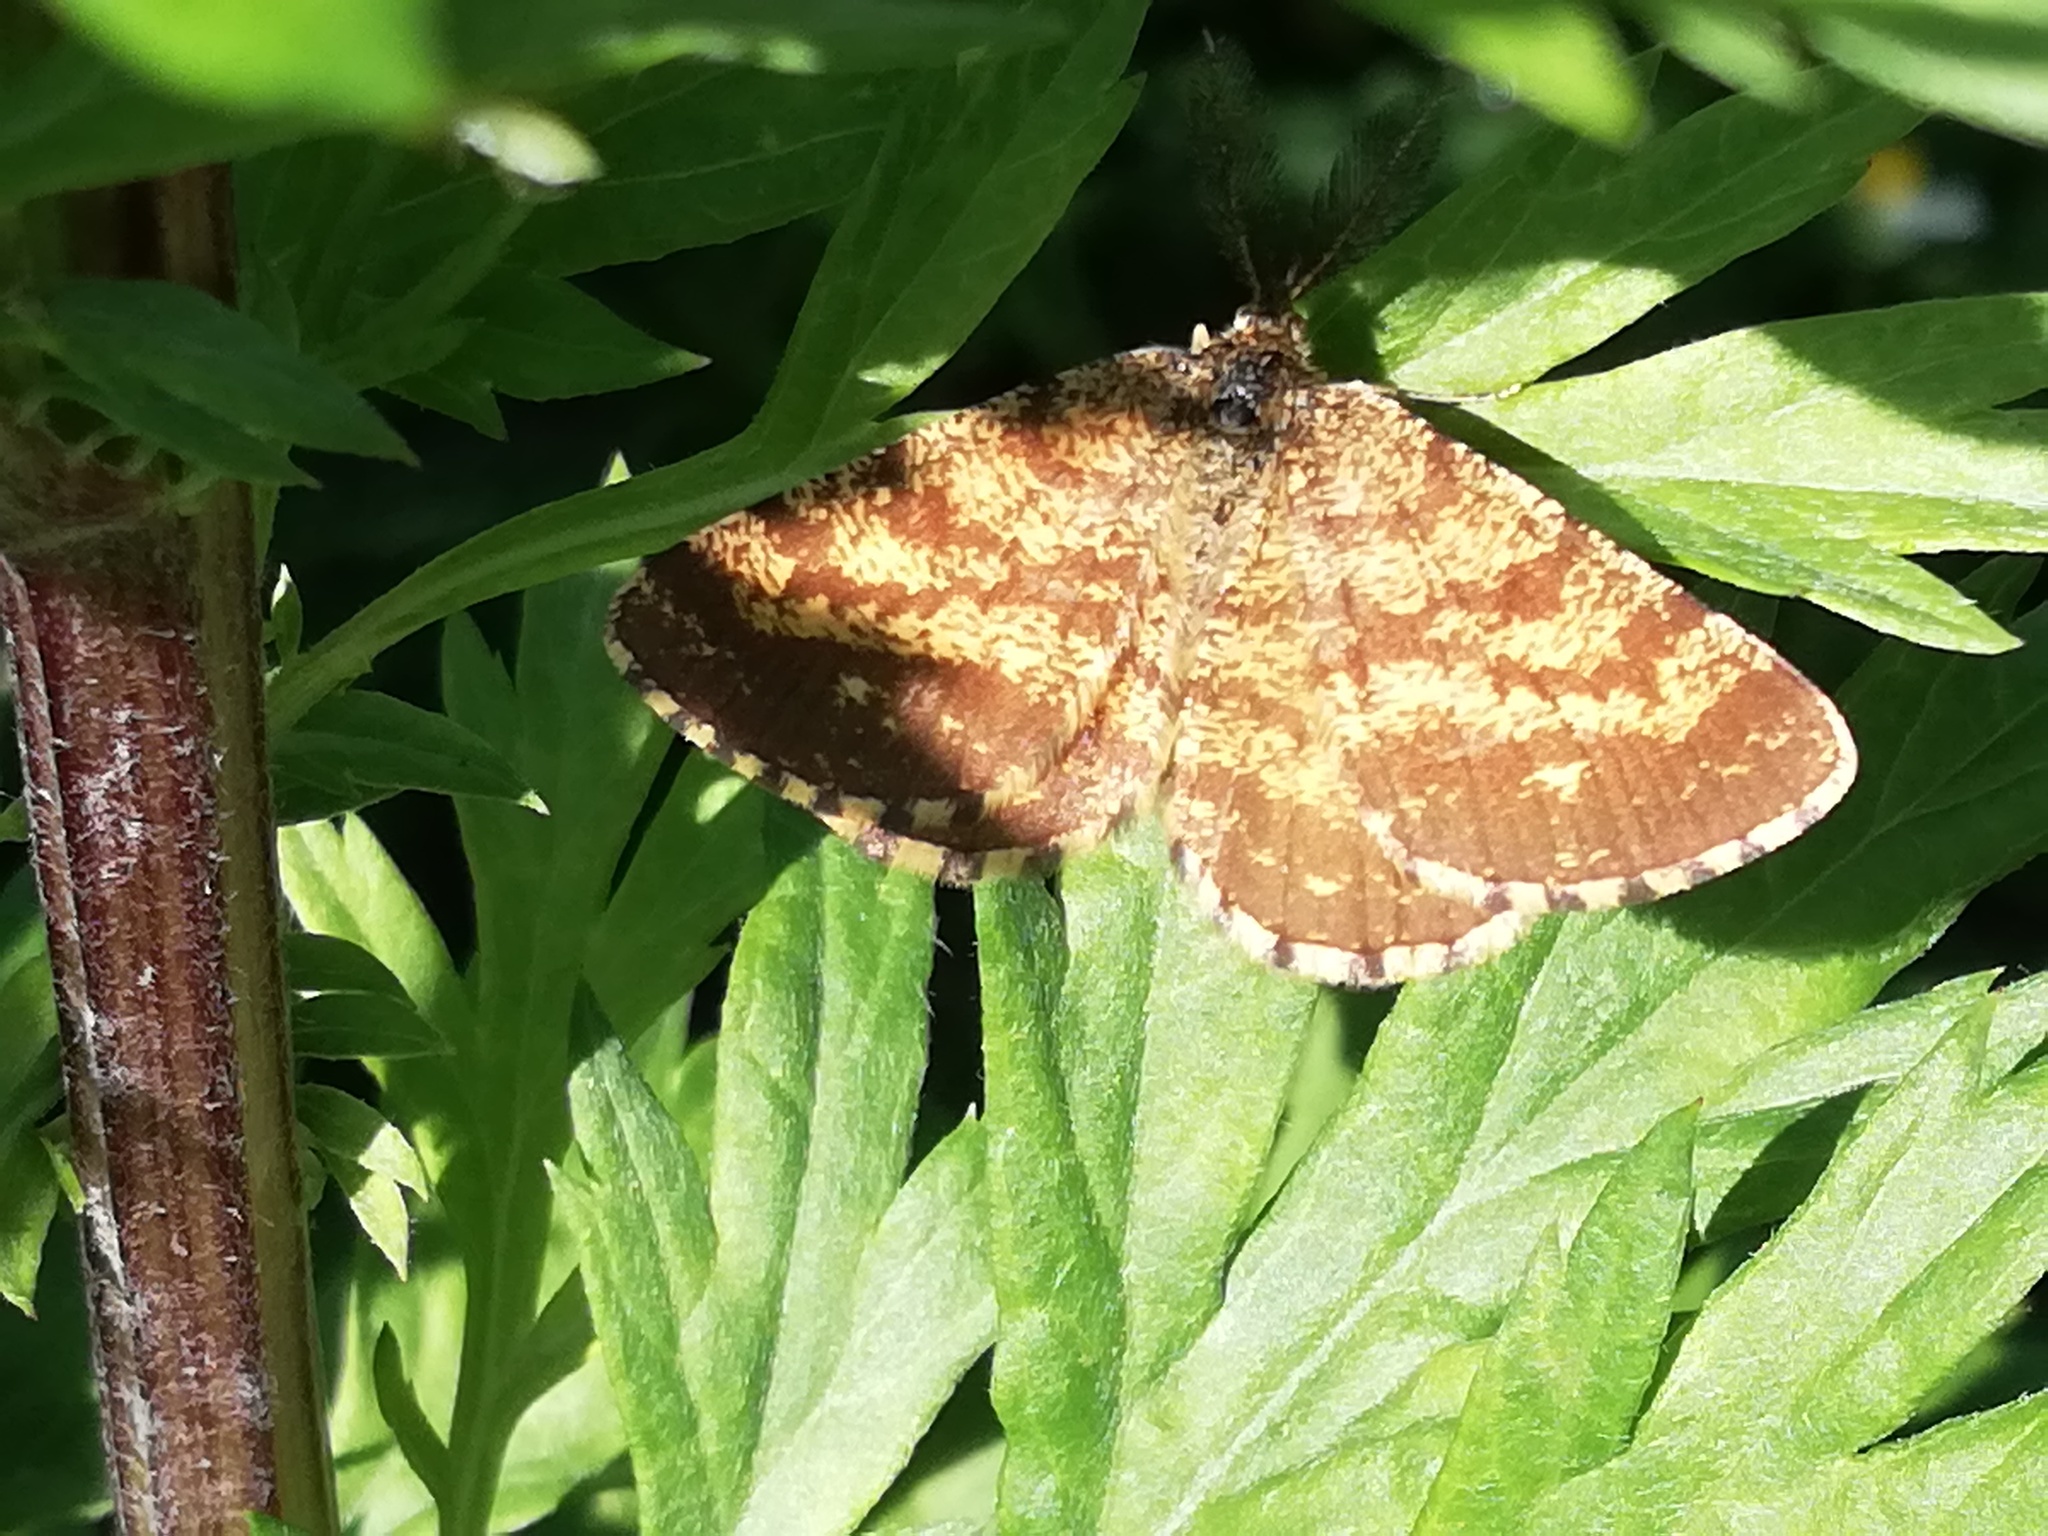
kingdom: Animalia
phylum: Arthropoda
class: Insecta
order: Lepidoptera
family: Geometridae
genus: Ematurga
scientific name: Ematurga atomaria
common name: Common heath
